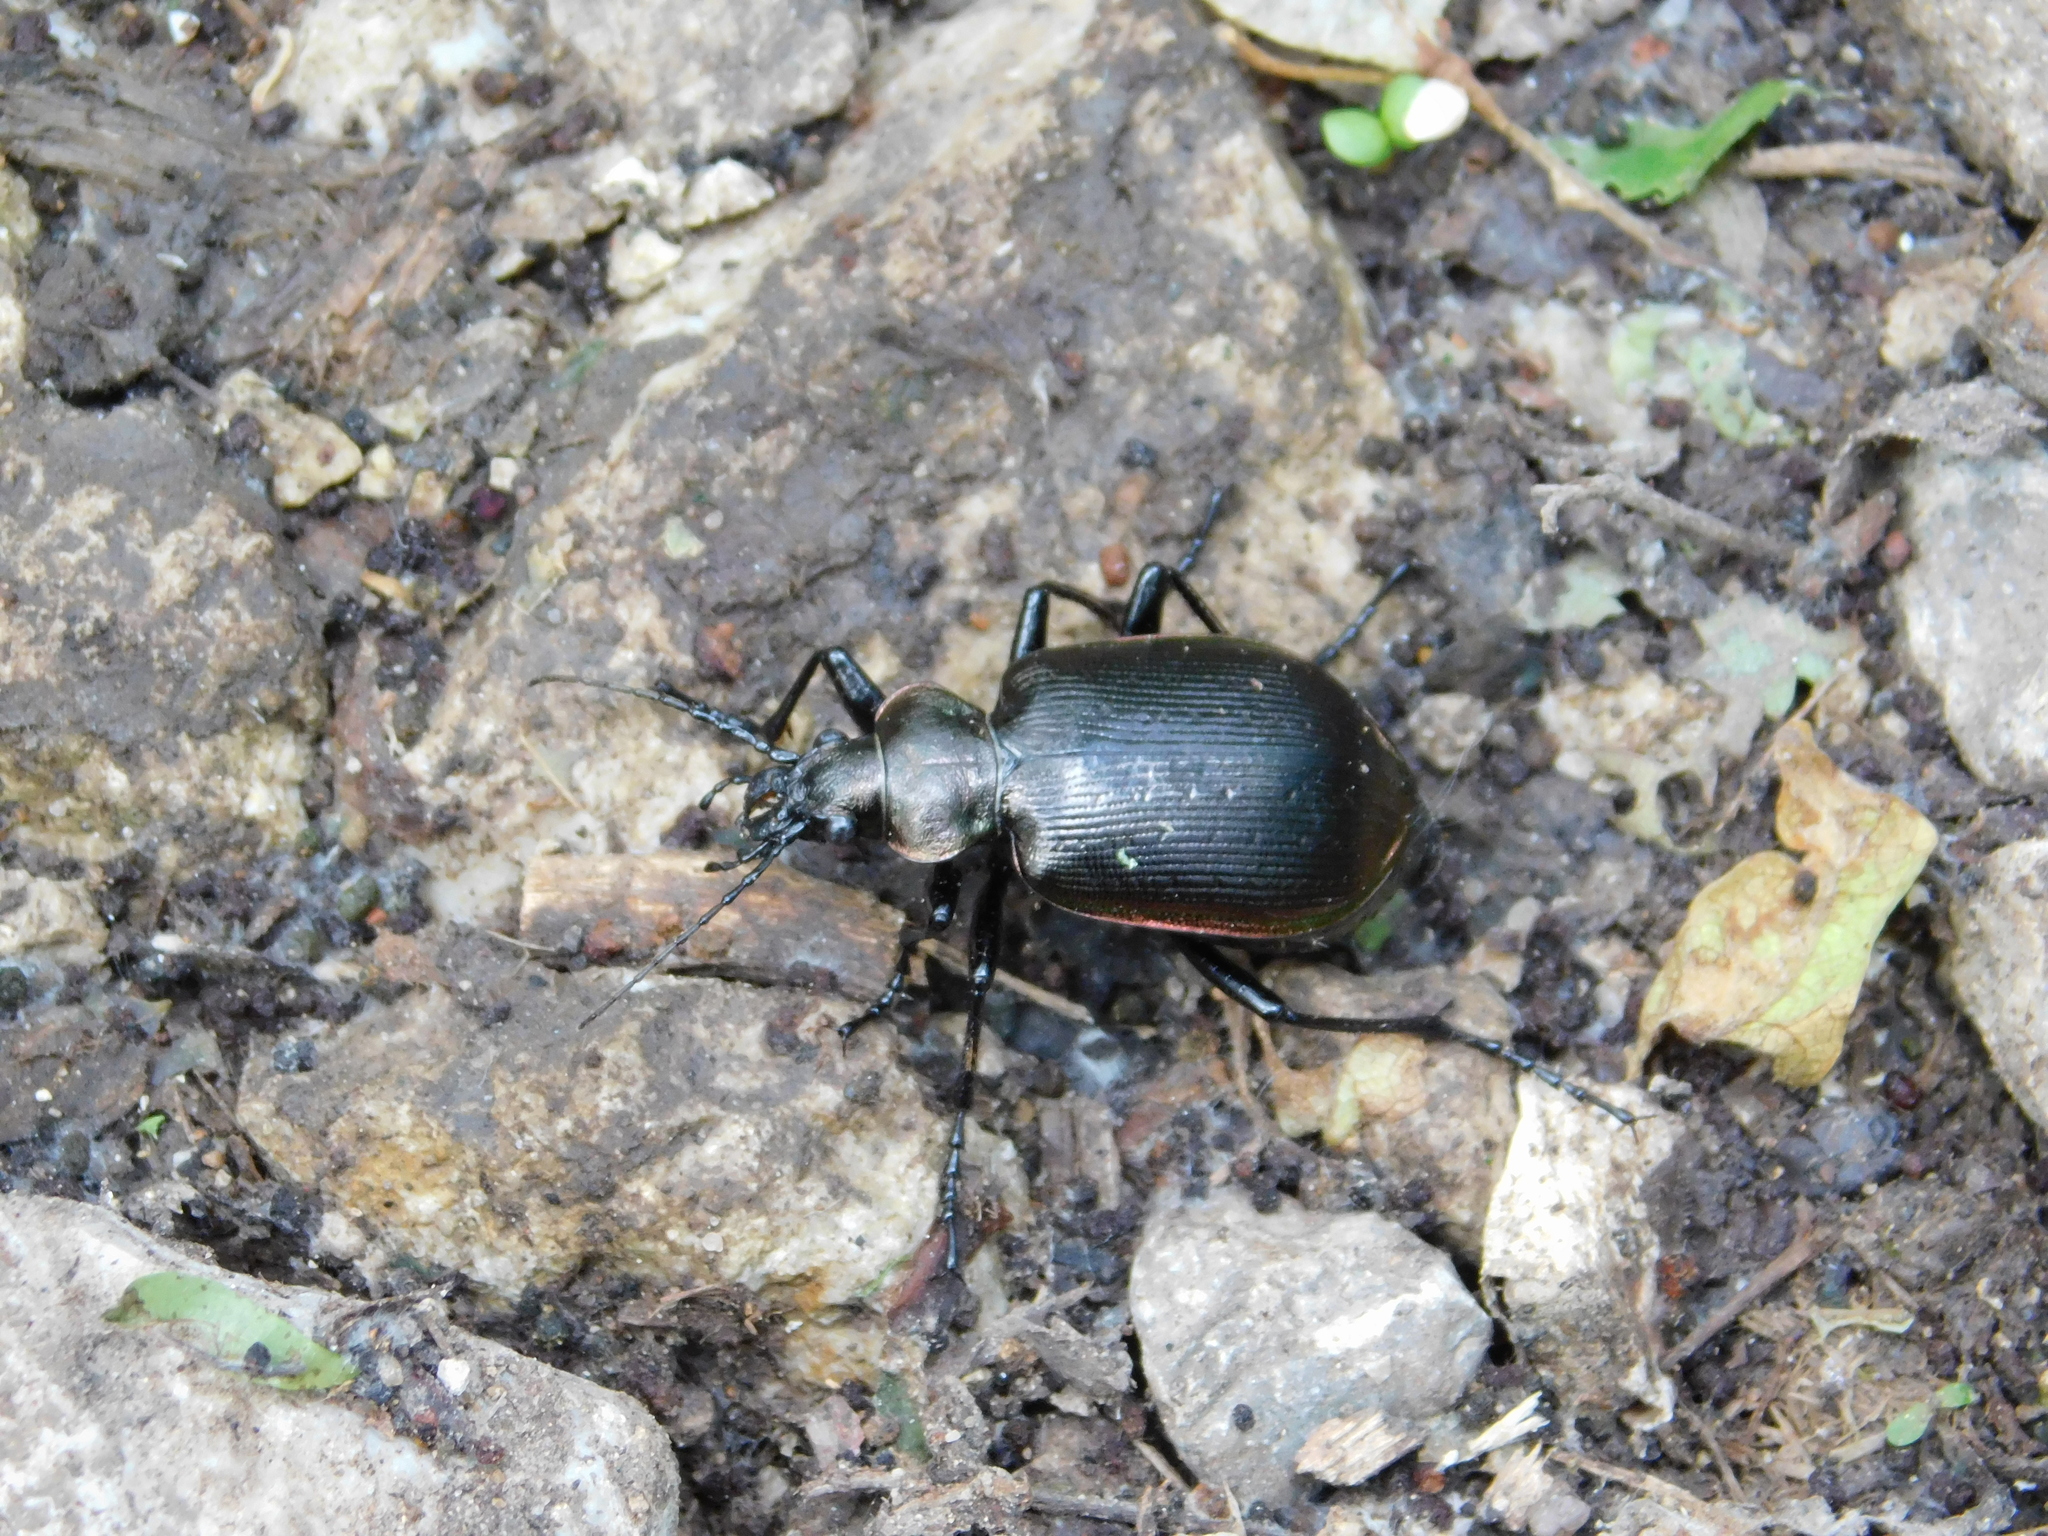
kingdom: Animalia
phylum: Arthropoda
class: Insecta
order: Coleoptera
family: Carabidae
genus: Calosoma
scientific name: Calosoma inquisitor
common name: Caterpillar-hunter
